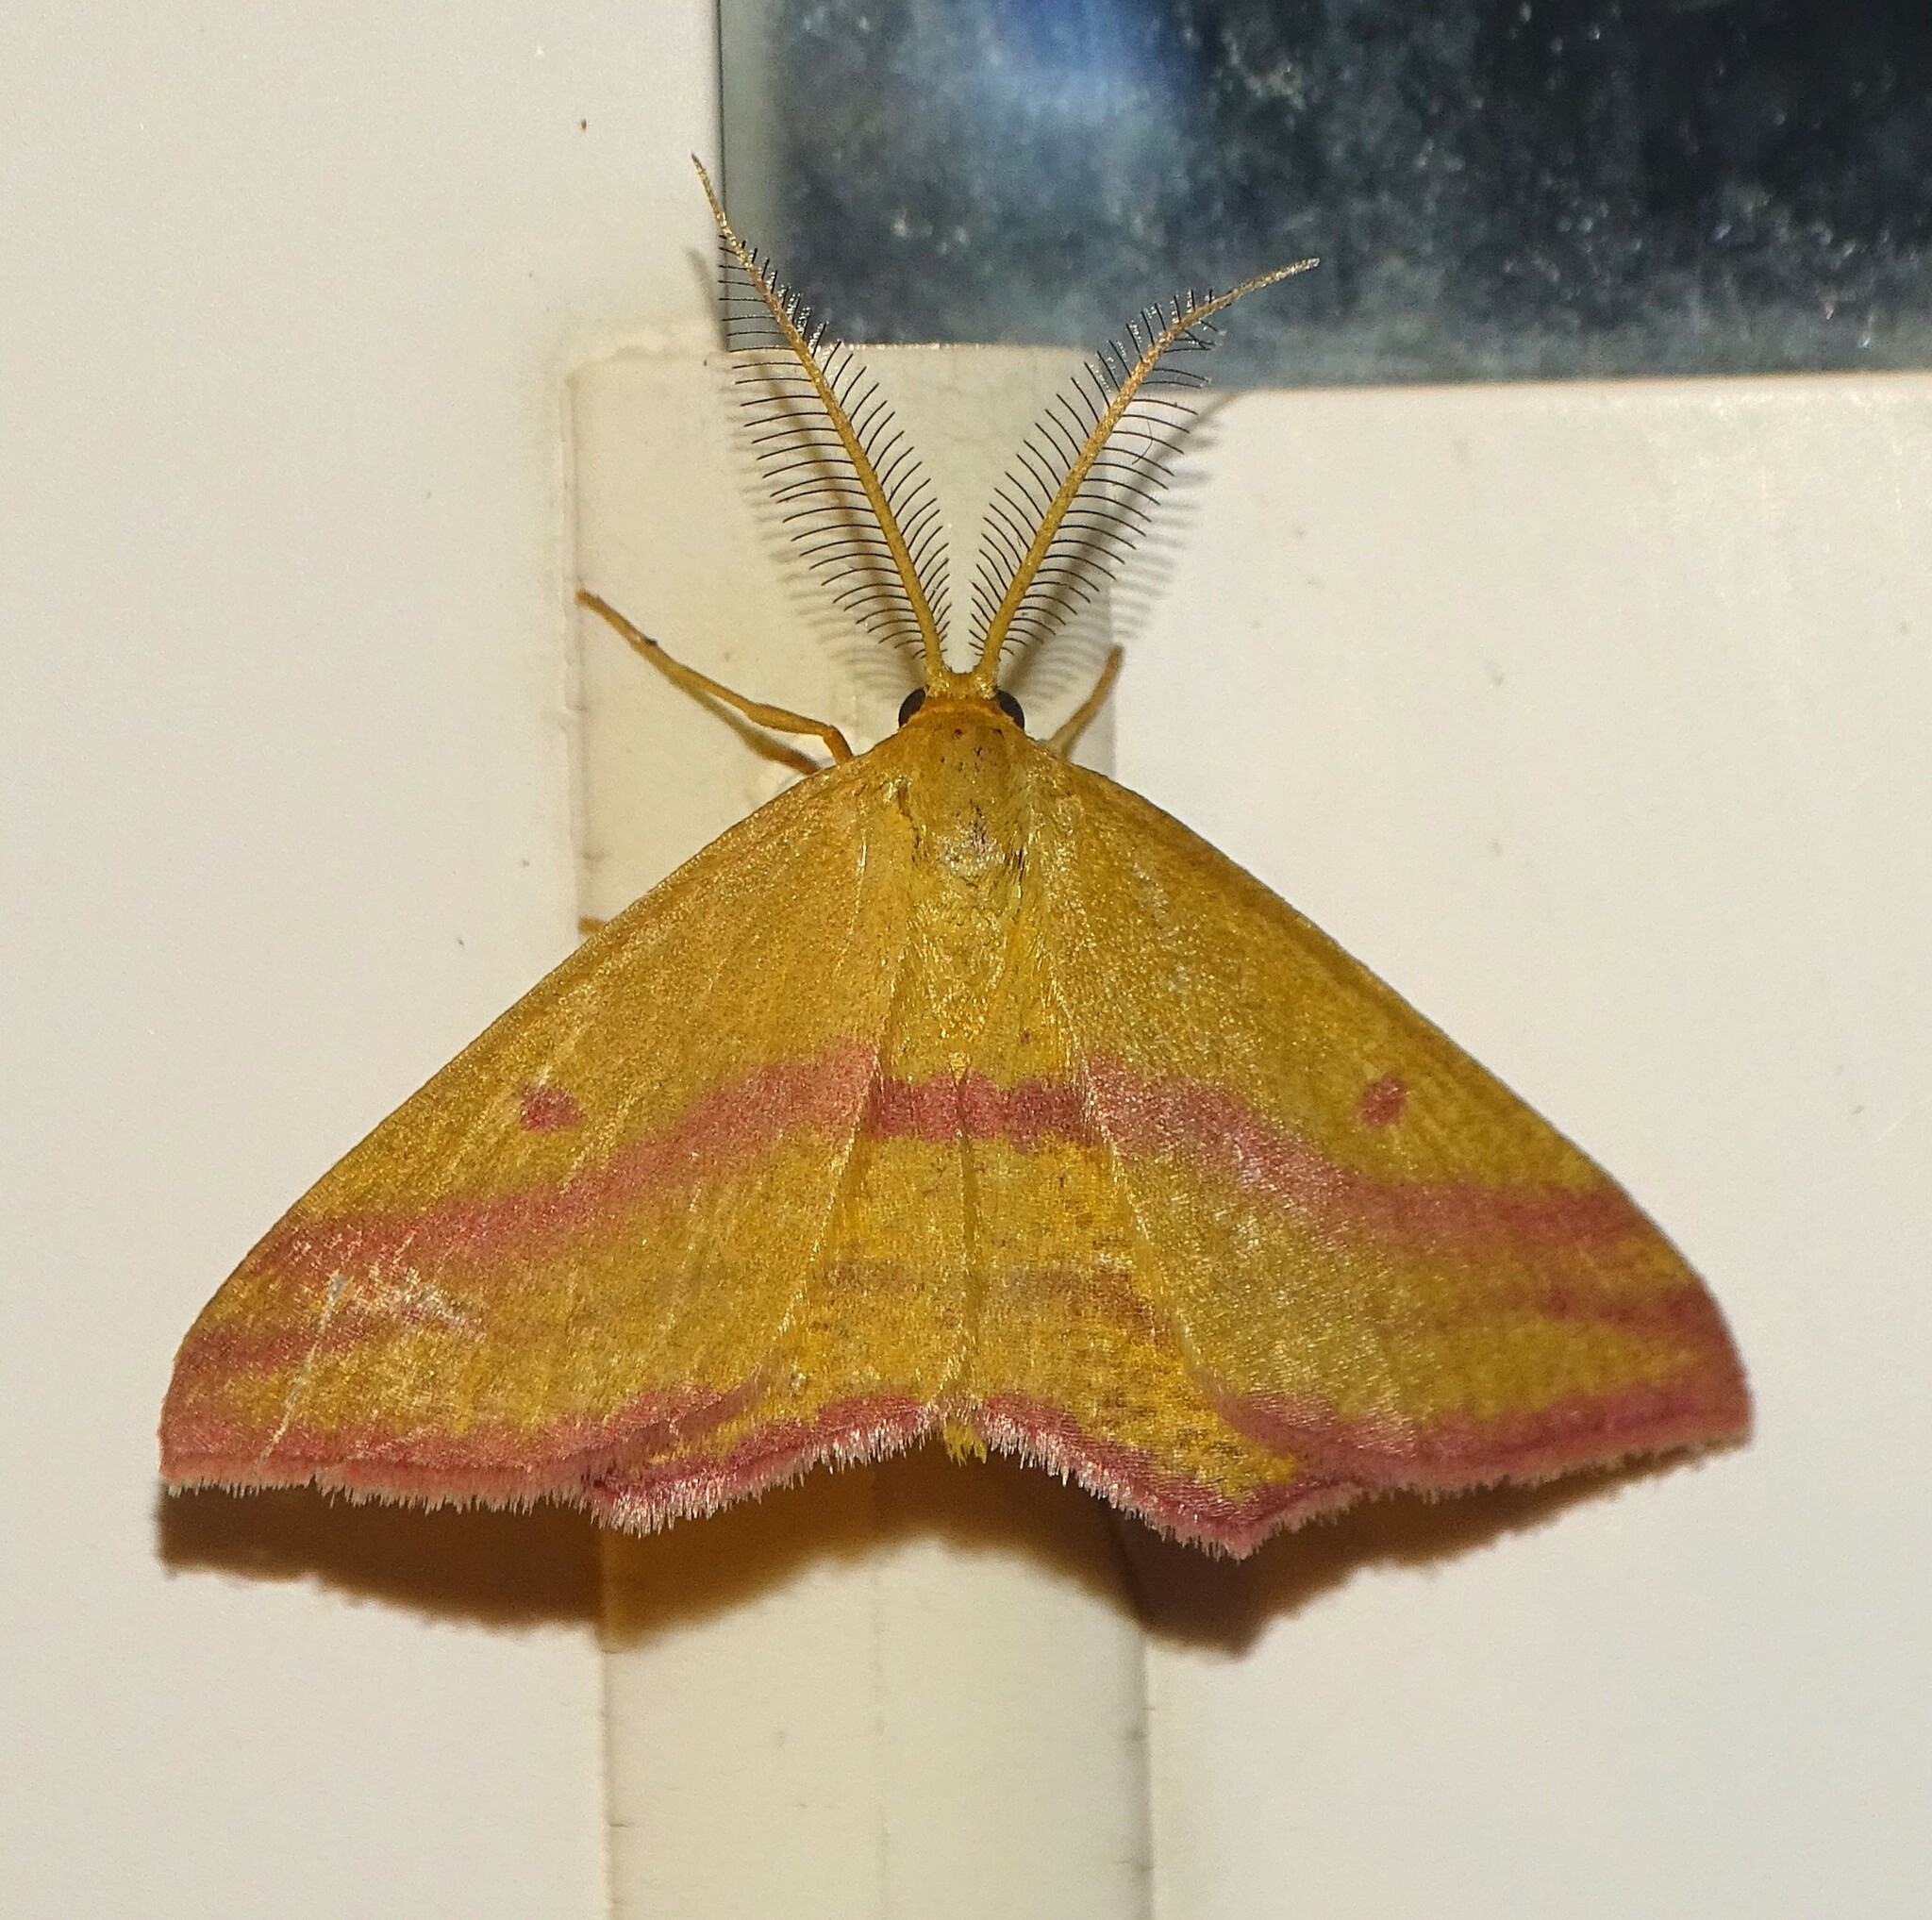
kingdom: Animalia
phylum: Arthropoda
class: Insecta
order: Lepidoptera
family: Geometridae
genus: Haematopis
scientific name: Haematopis grataria
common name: Chickweed geometer
